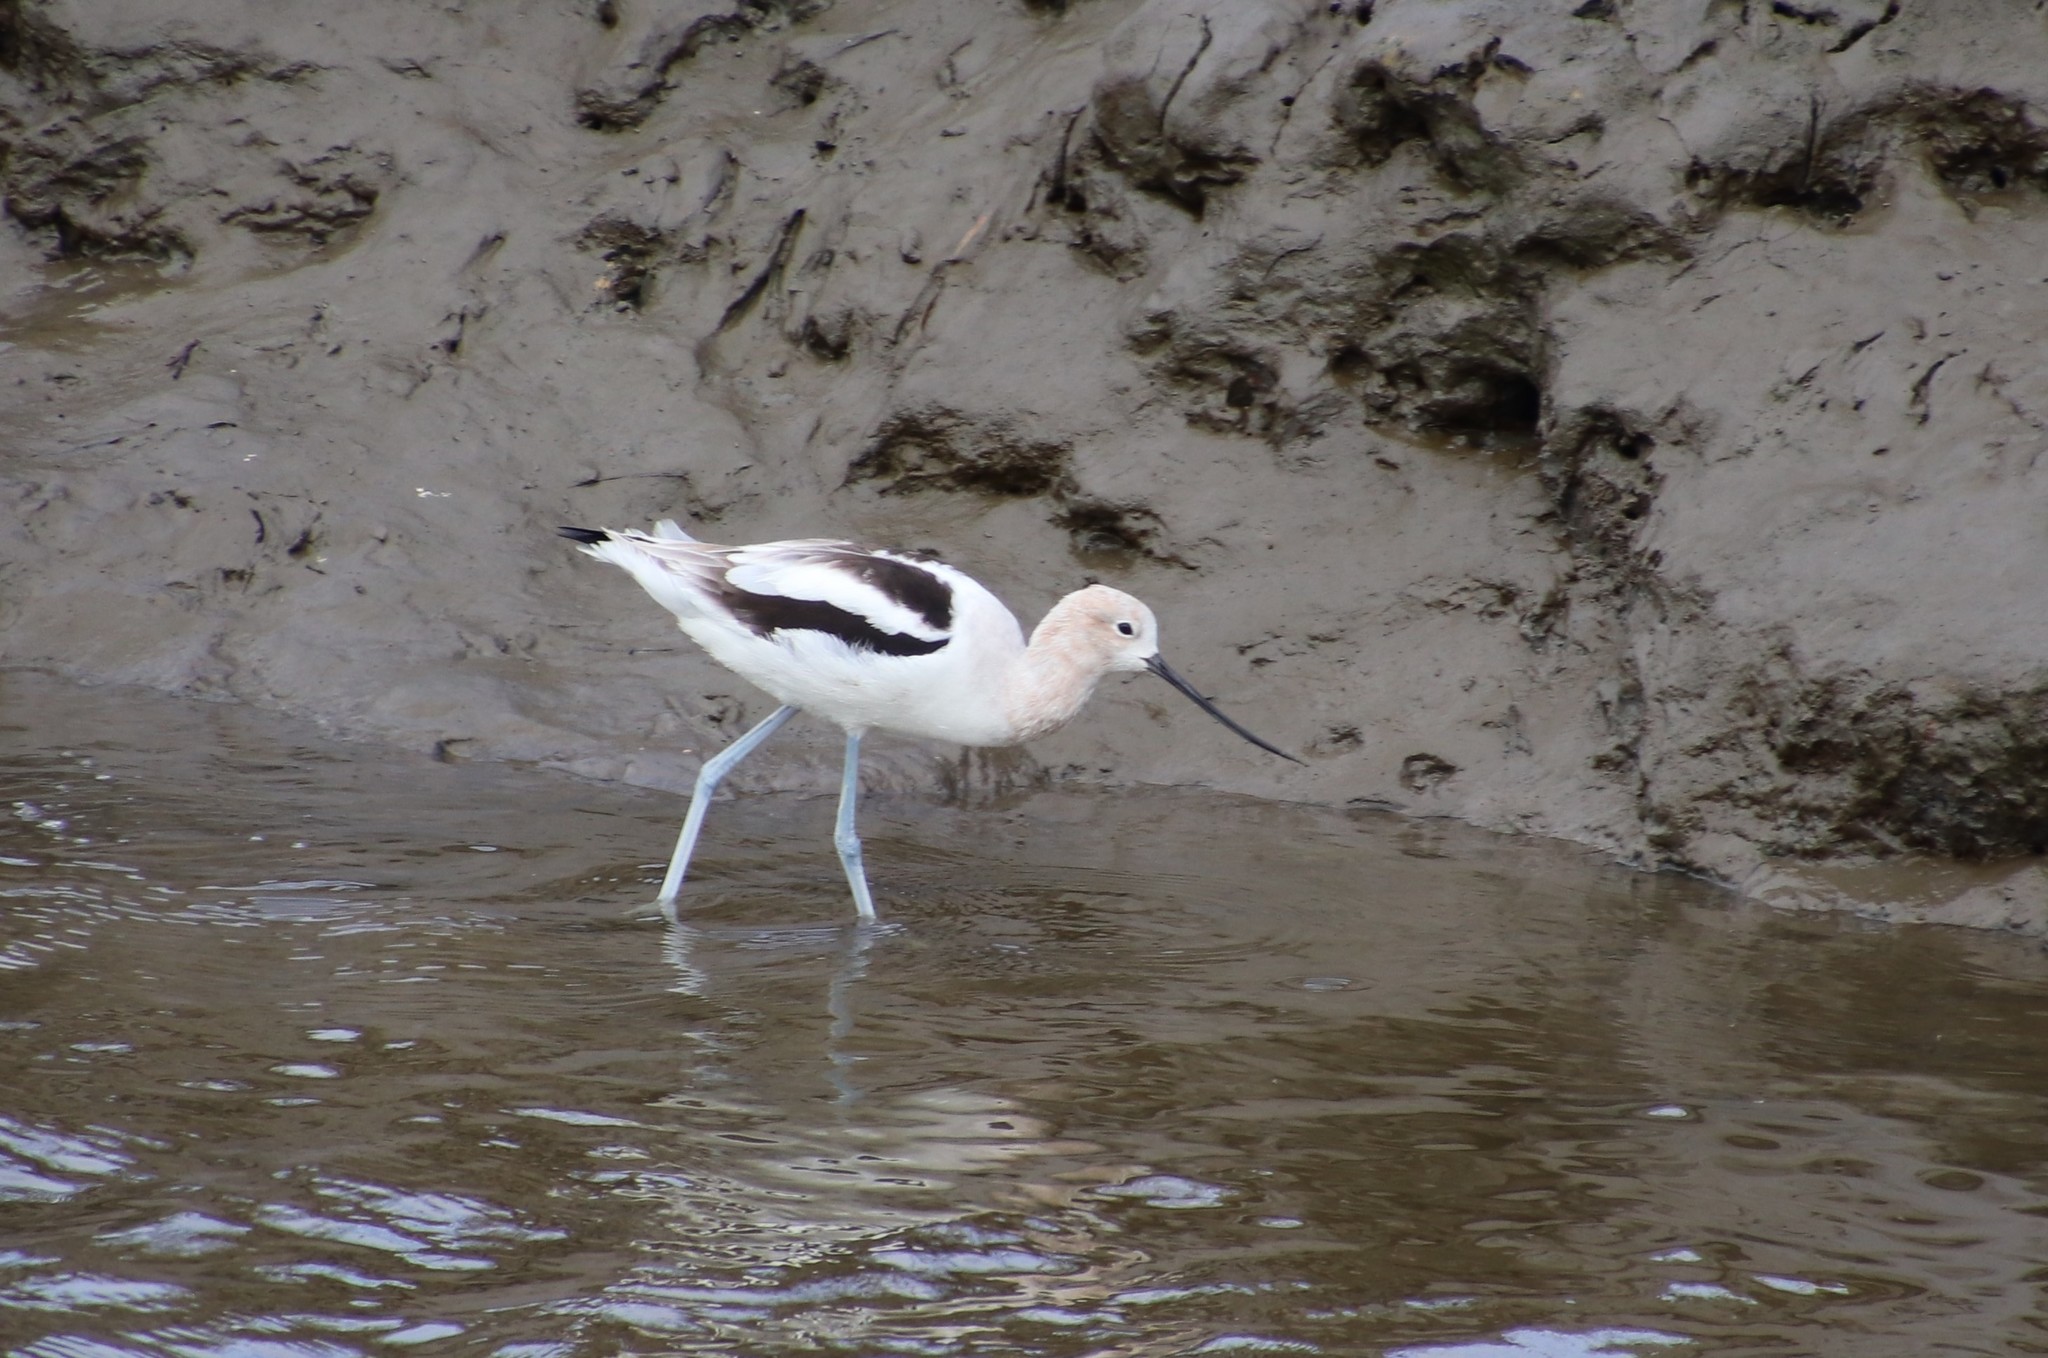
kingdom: Animalia
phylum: Chordata
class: Aves
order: Charadriiformes
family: Recurvirostridae
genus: Recurvirostra
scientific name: Recurvirostra americana
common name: American avocet
